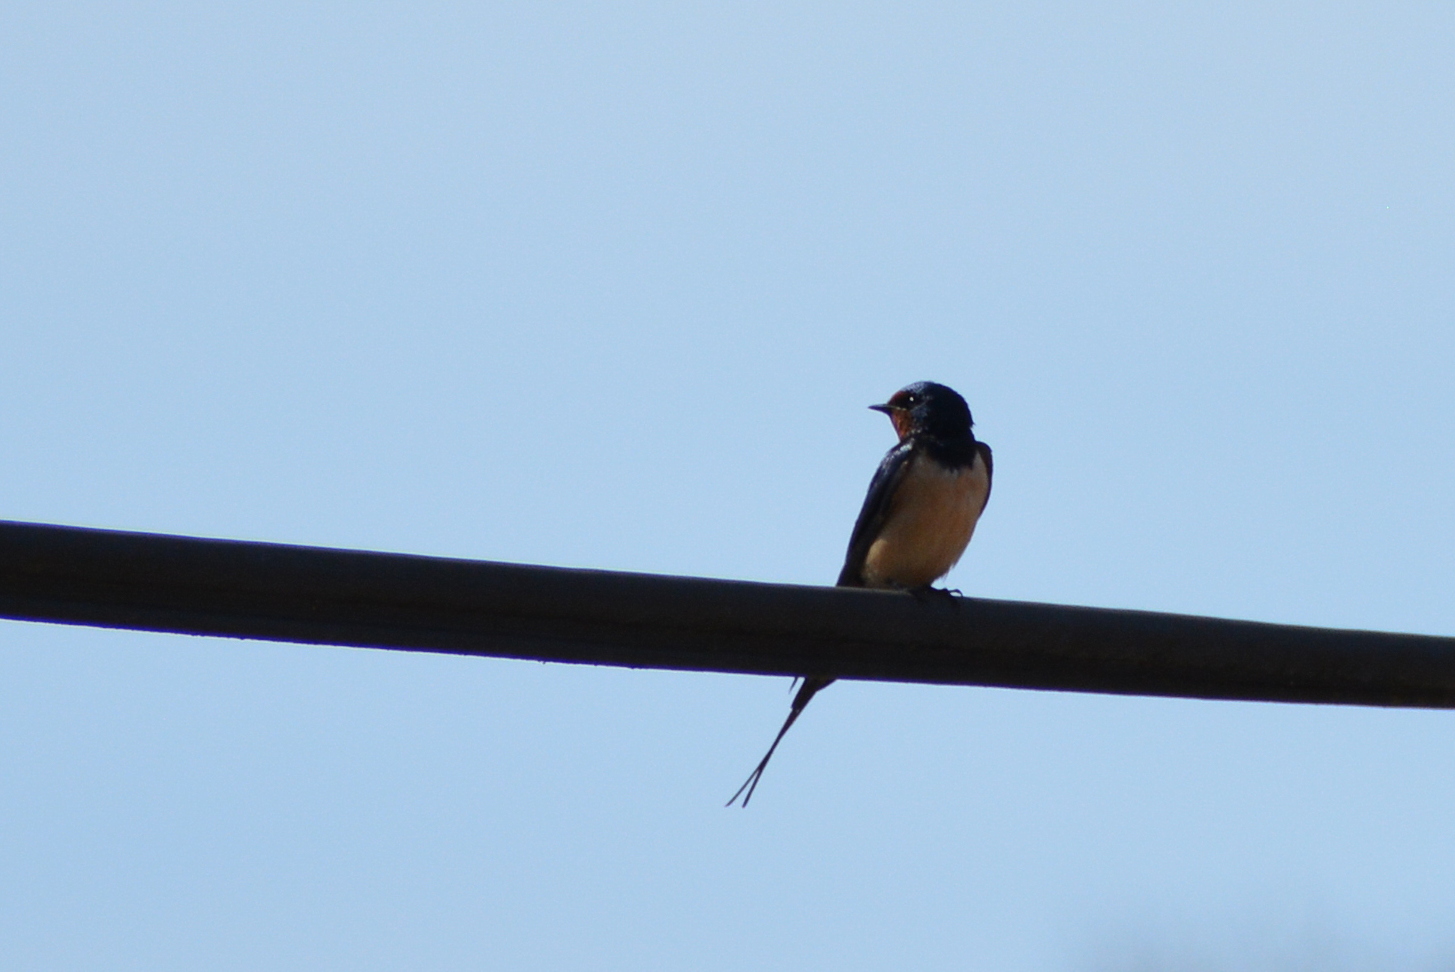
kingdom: Animalia
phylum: Chordata
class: Aves
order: Passeriformes
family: Hirundinidae
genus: Hirundo
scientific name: Hirundo rustica
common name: Barn swallow
